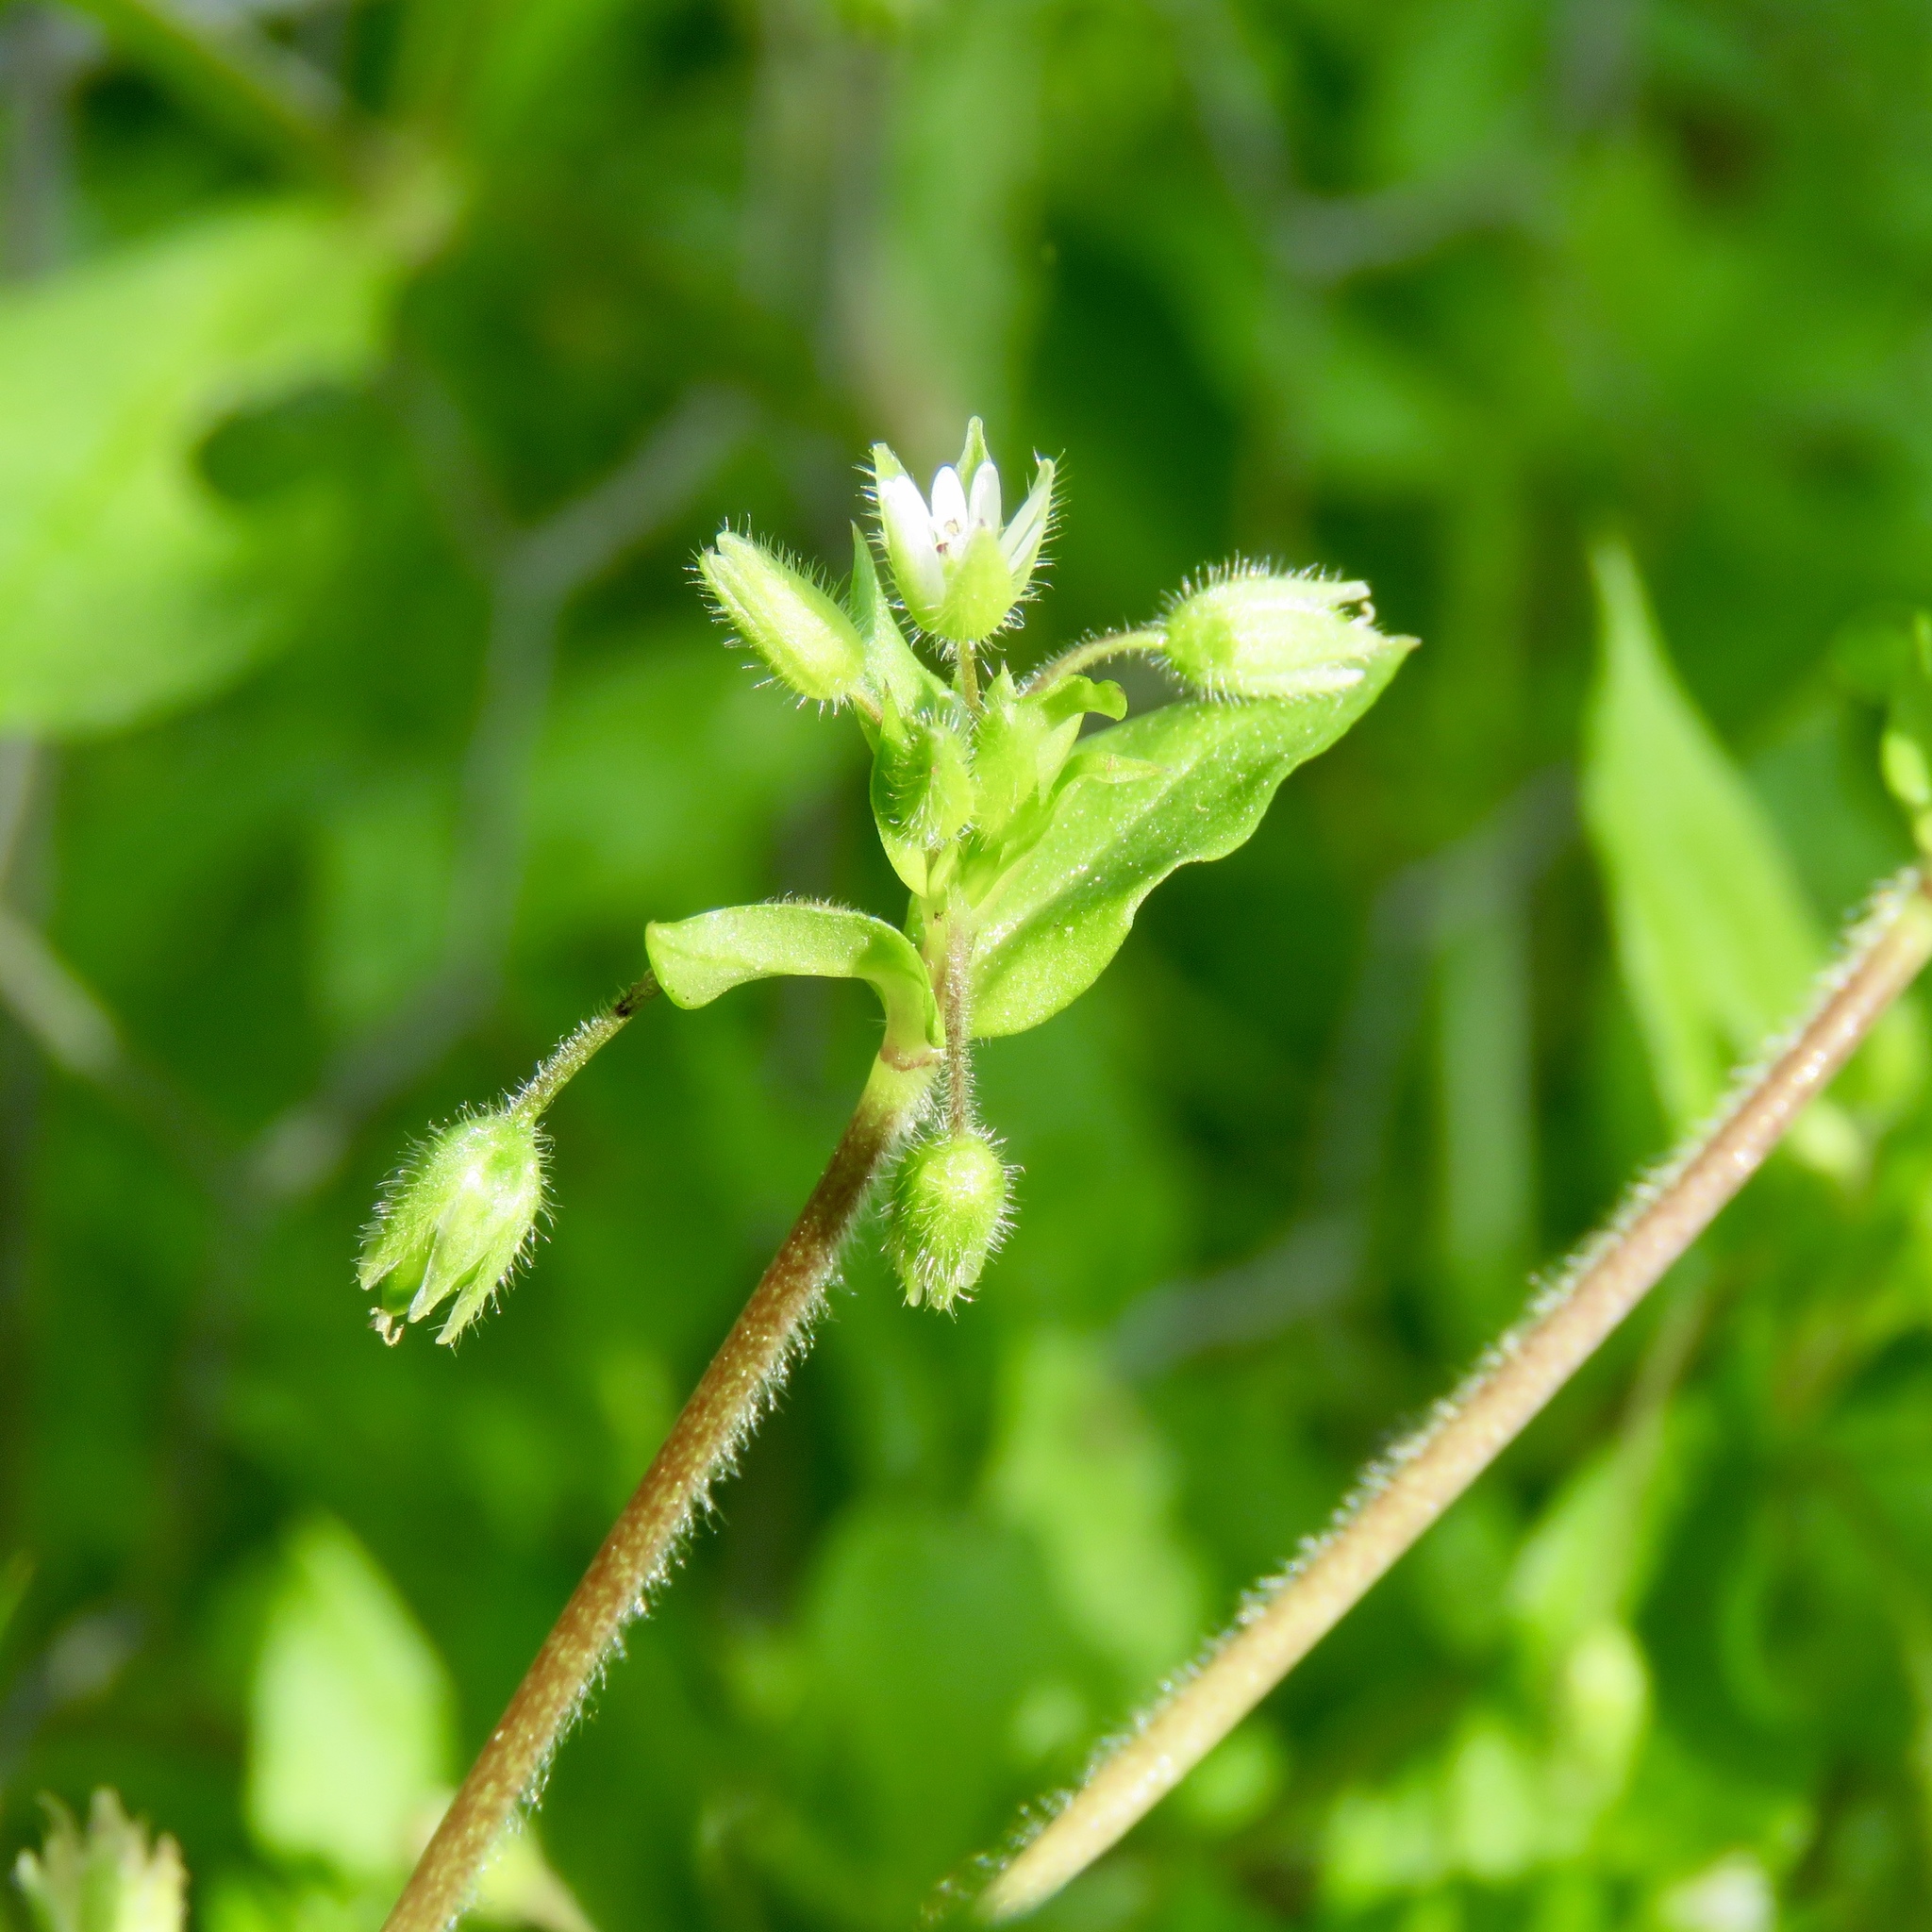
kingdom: Plantae
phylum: Tracheophyta
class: Magnoliopsida
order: Caryophyllales
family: Caryophyllaceae
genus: Stellaria
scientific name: Stellaria media
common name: Common chickweed
